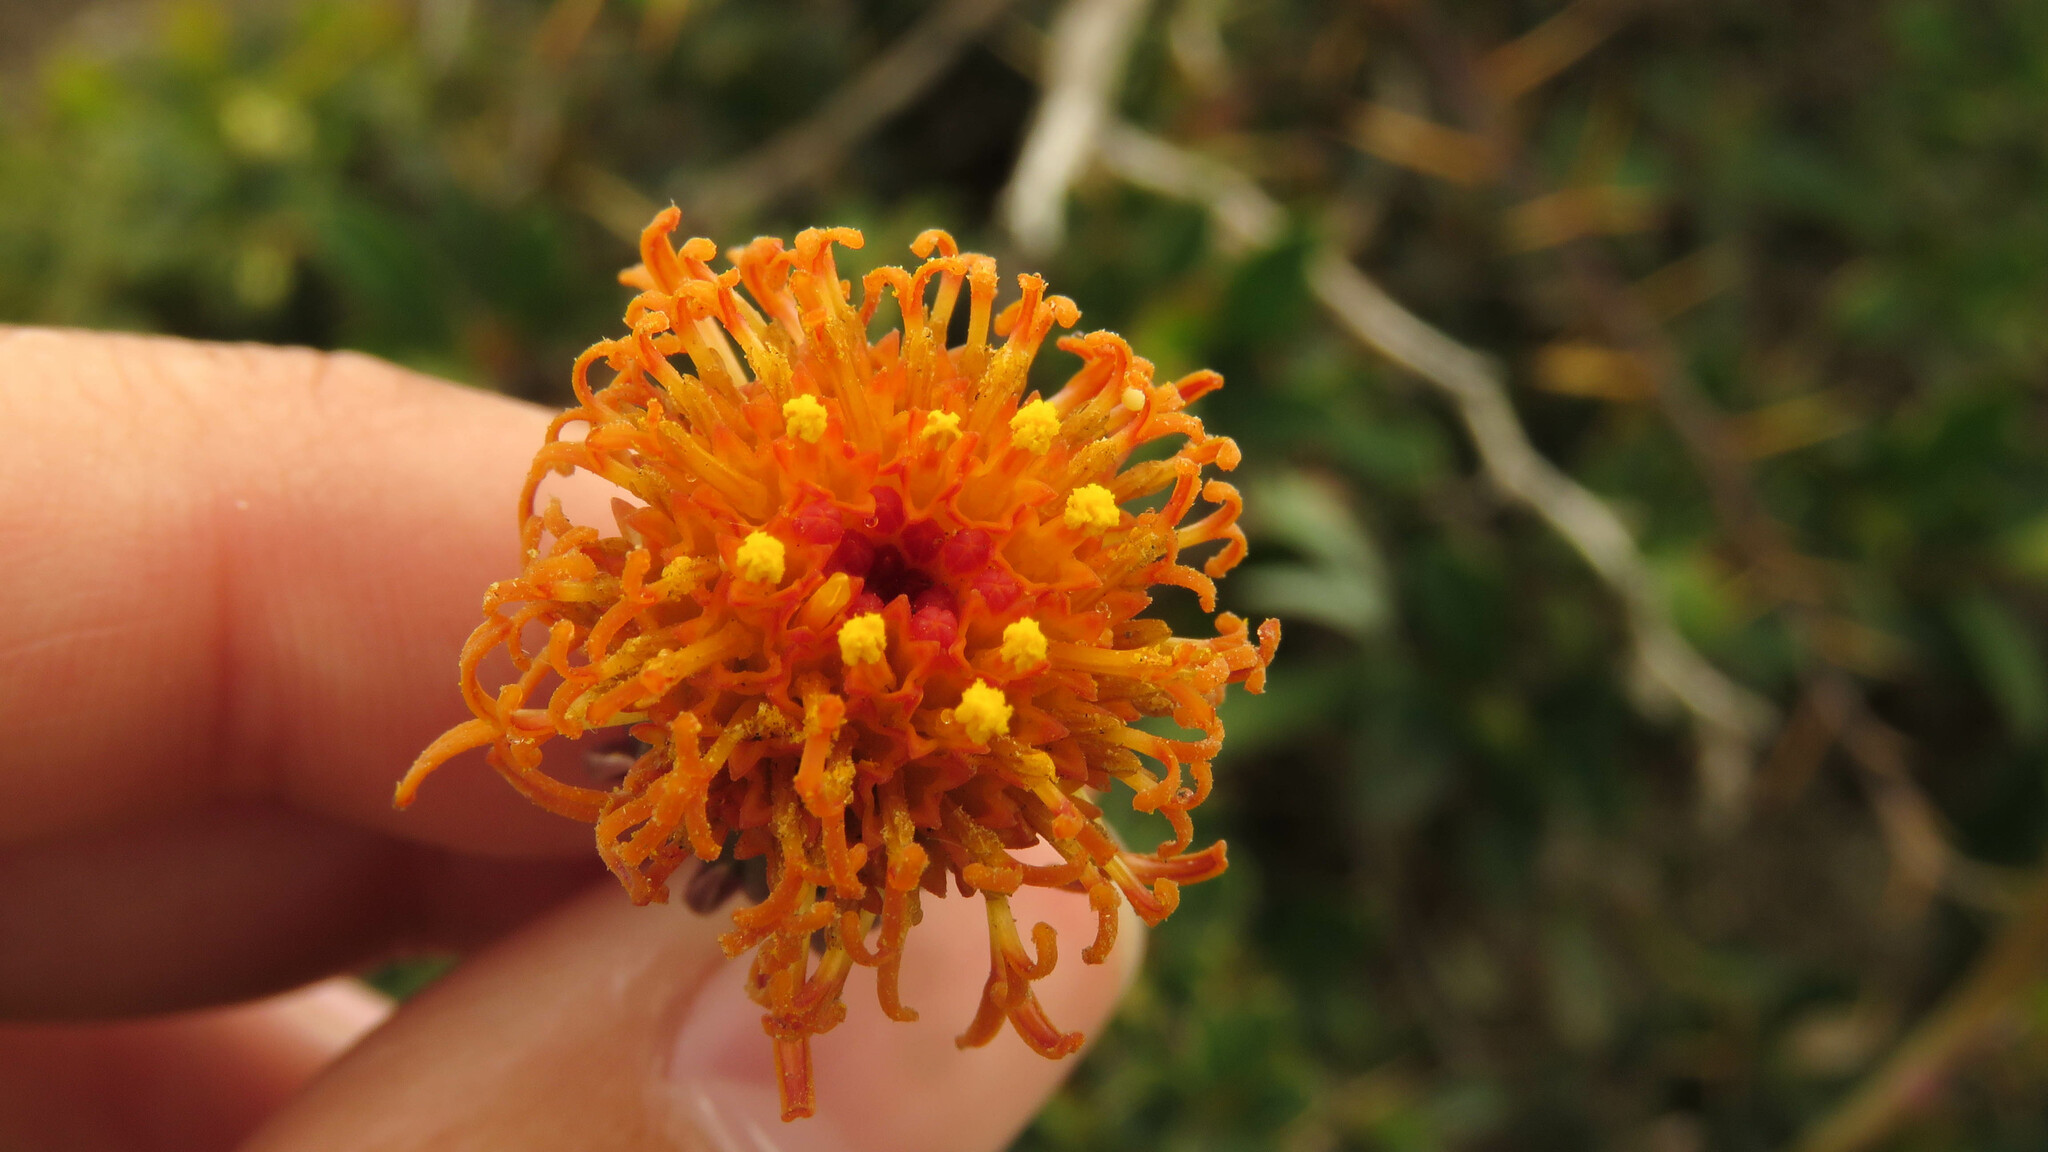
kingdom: Plantae
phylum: Tracheophyta
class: Magnoliopsida
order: Asterales
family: Asteraceae
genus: Senecio
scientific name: Senecio kingii
